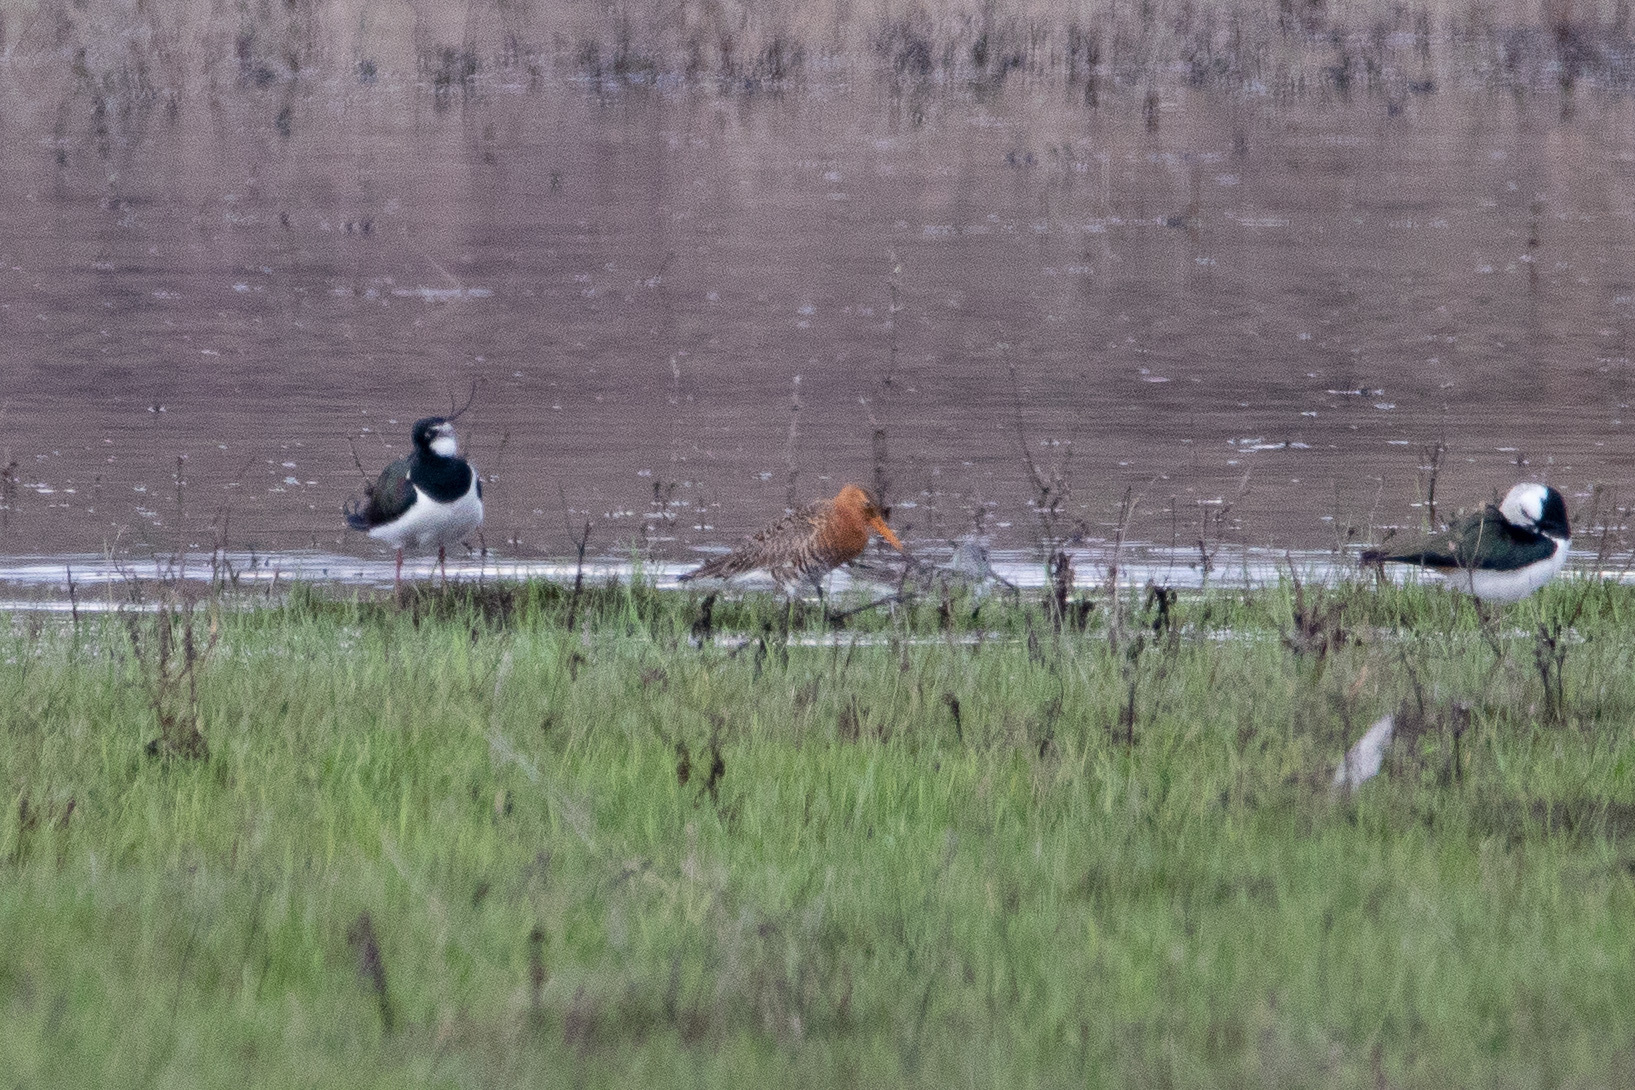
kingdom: Animalia
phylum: Chordata
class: Aves
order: Charadriiformes
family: Scolopacidae
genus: Limosa
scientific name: Limosa limosa
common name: Black-tailed godwit
